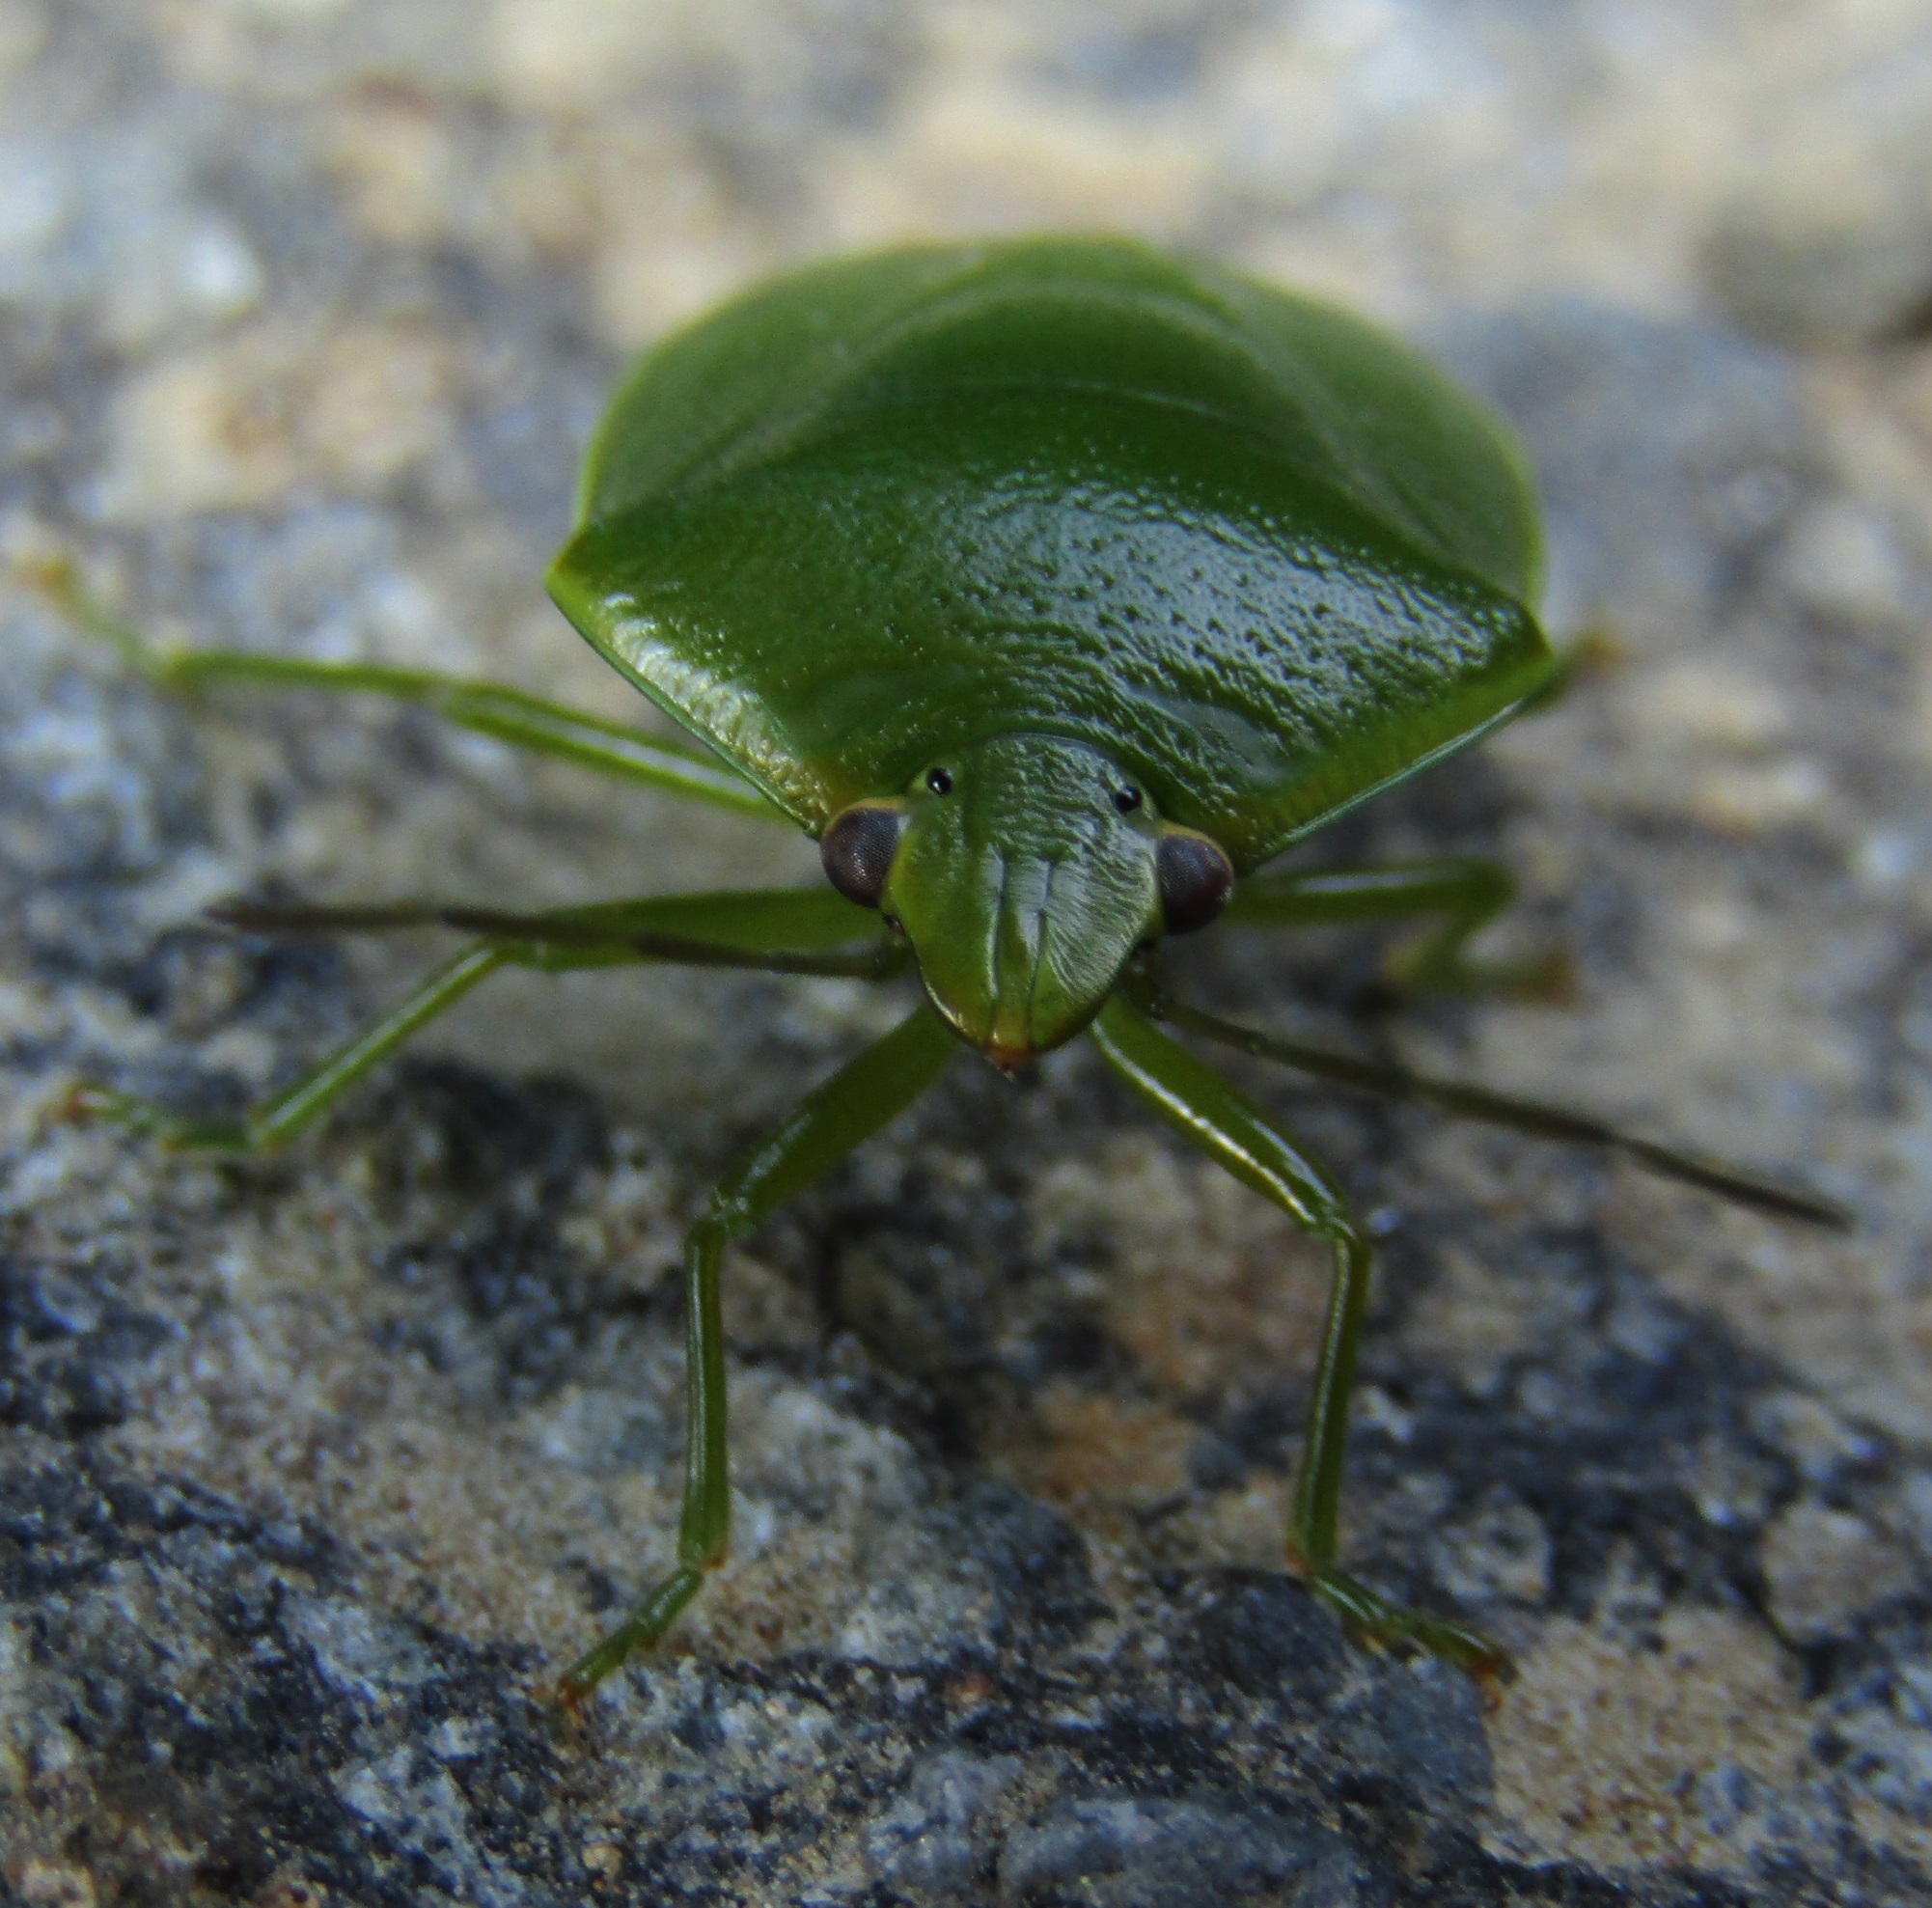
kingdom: Animalia
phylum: Arthropoda
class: Insecta
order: Hemiptera
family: Pentatomidae
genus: Glaucias
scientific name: Glaucias amyota
